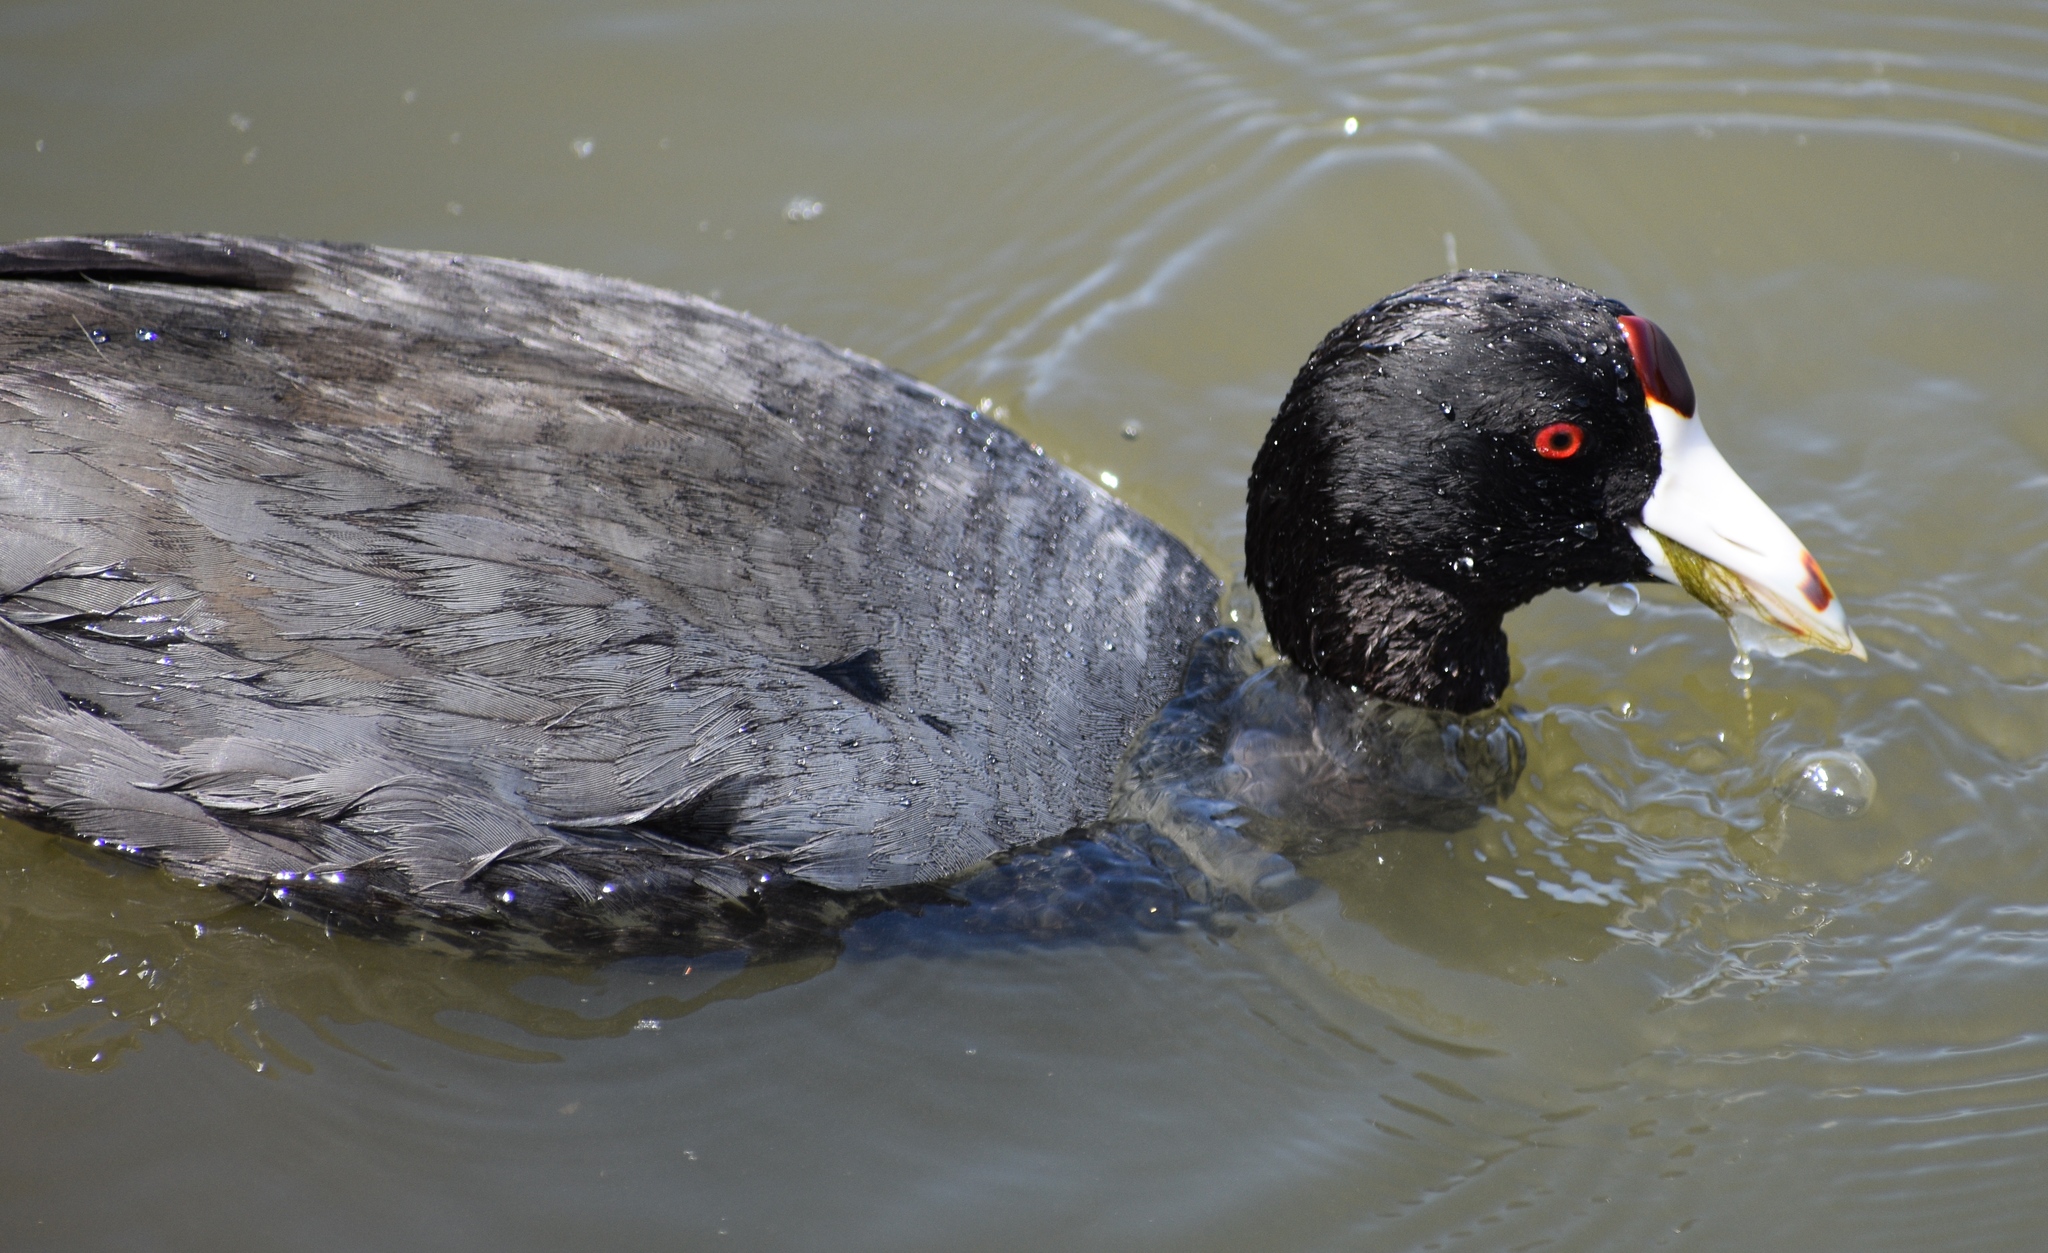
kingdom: Animalia
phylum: Chordata
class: Aves
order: Gruiformes
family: Rallidae
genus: Fulica
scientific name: Fulica americana
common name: American coot
